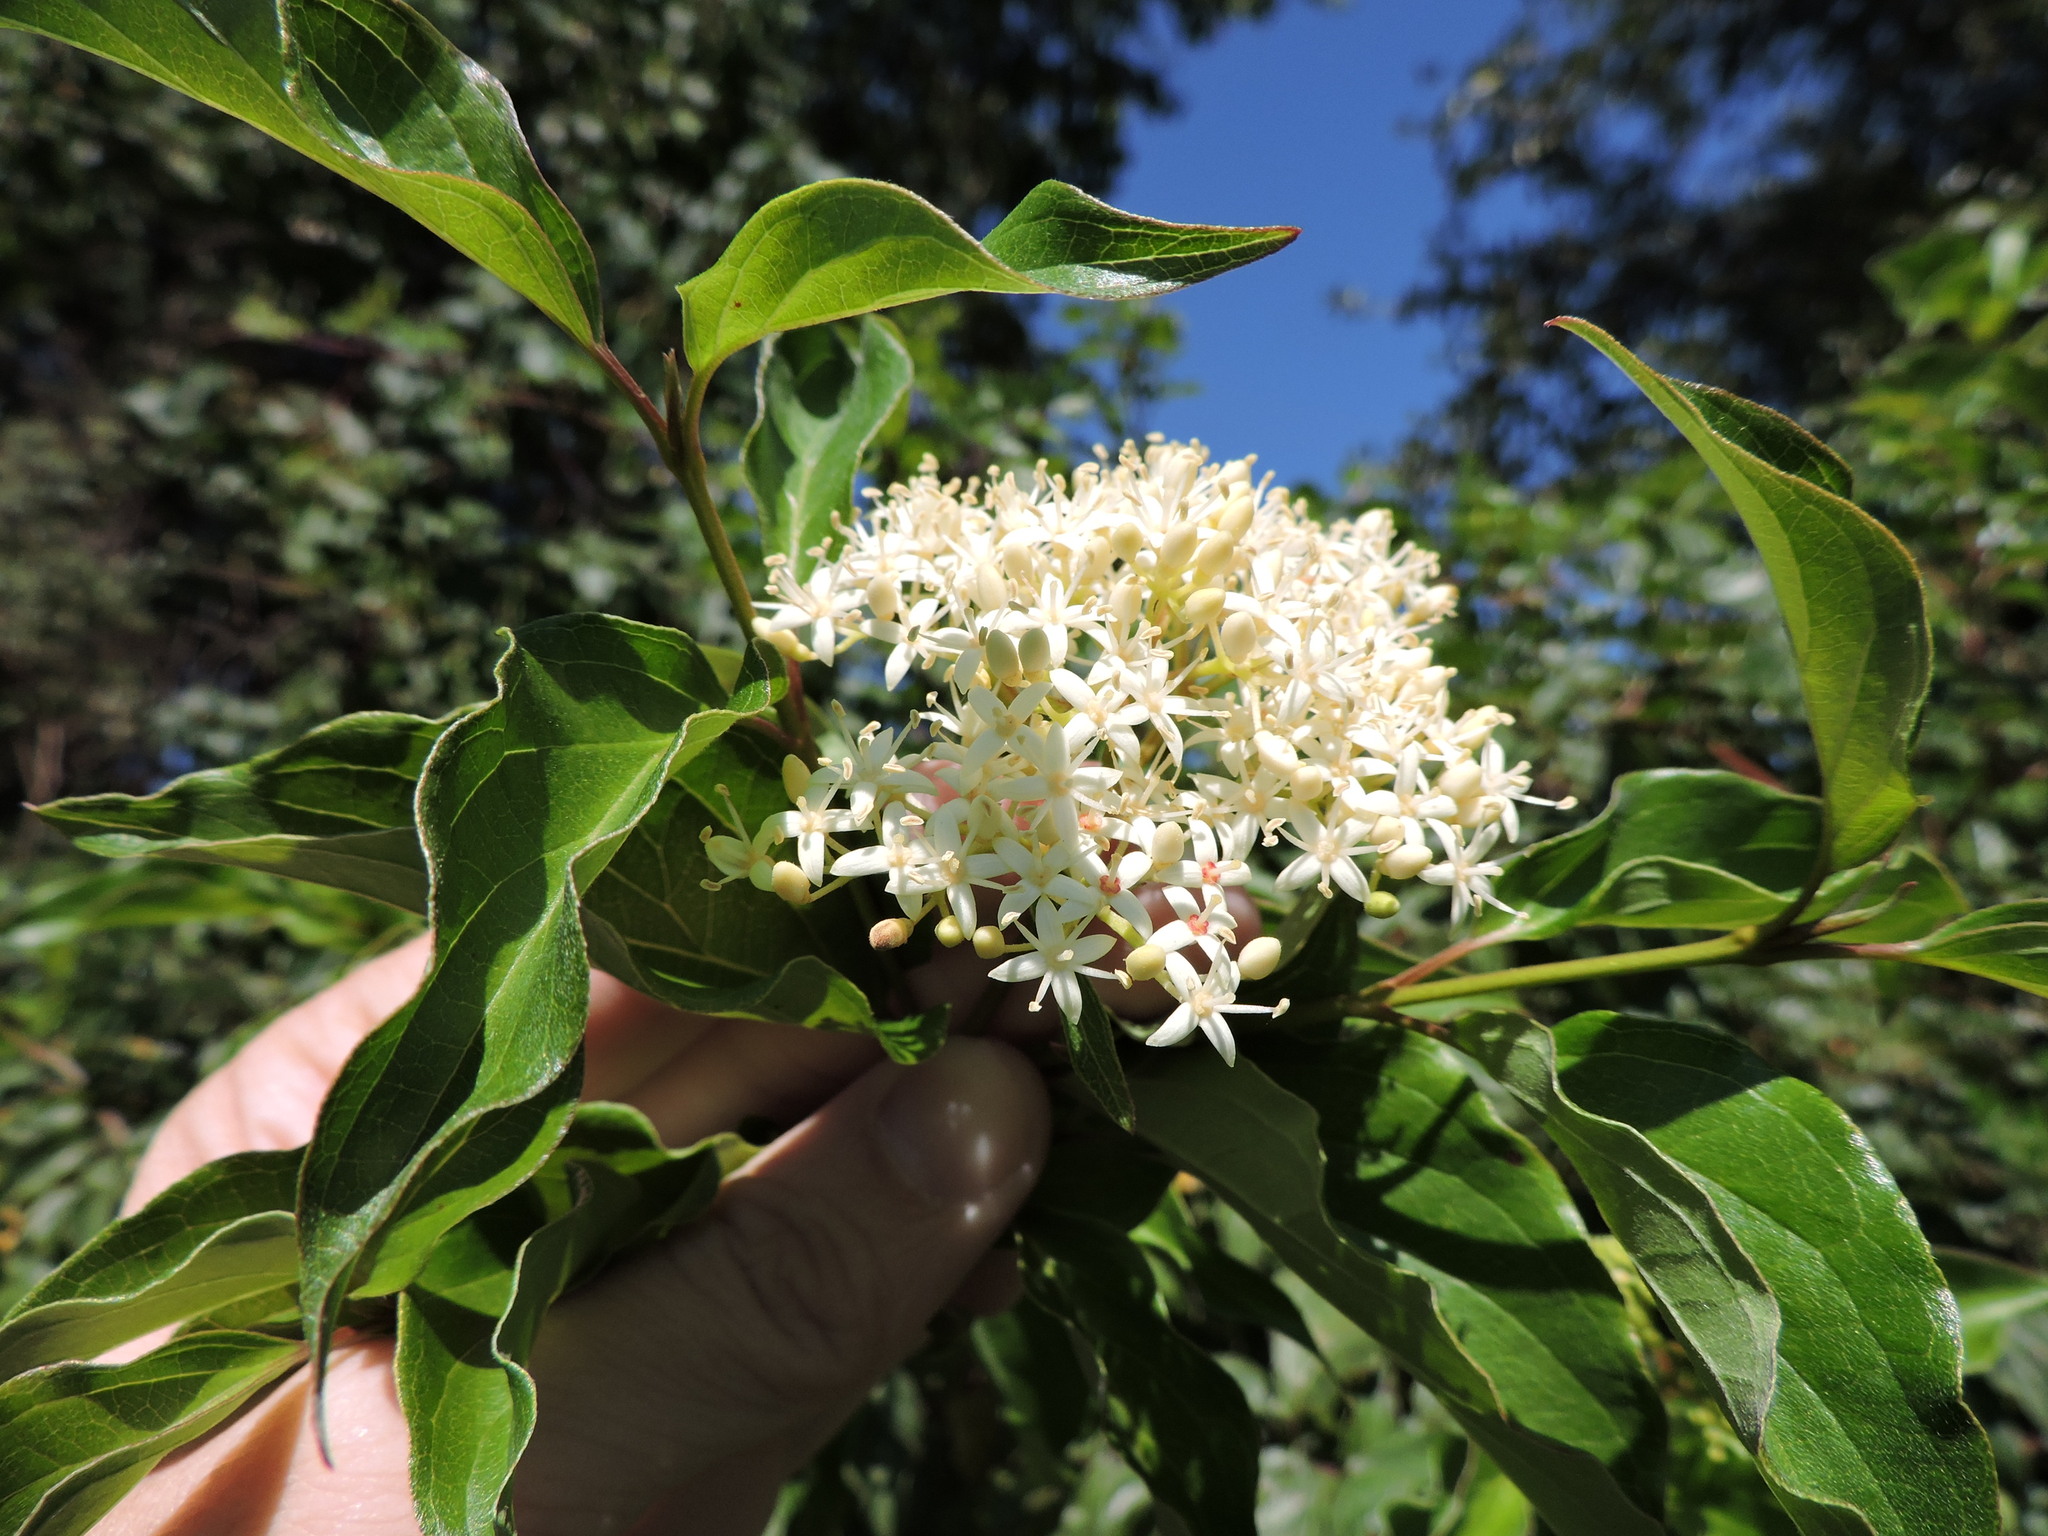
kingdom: Plantae
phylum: Tracheophyta
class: Magnoliopsida
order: Cornales
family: Cornaceae
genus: Cornus
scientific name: Cornus drummondii
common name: Rough-leaf dogwood
